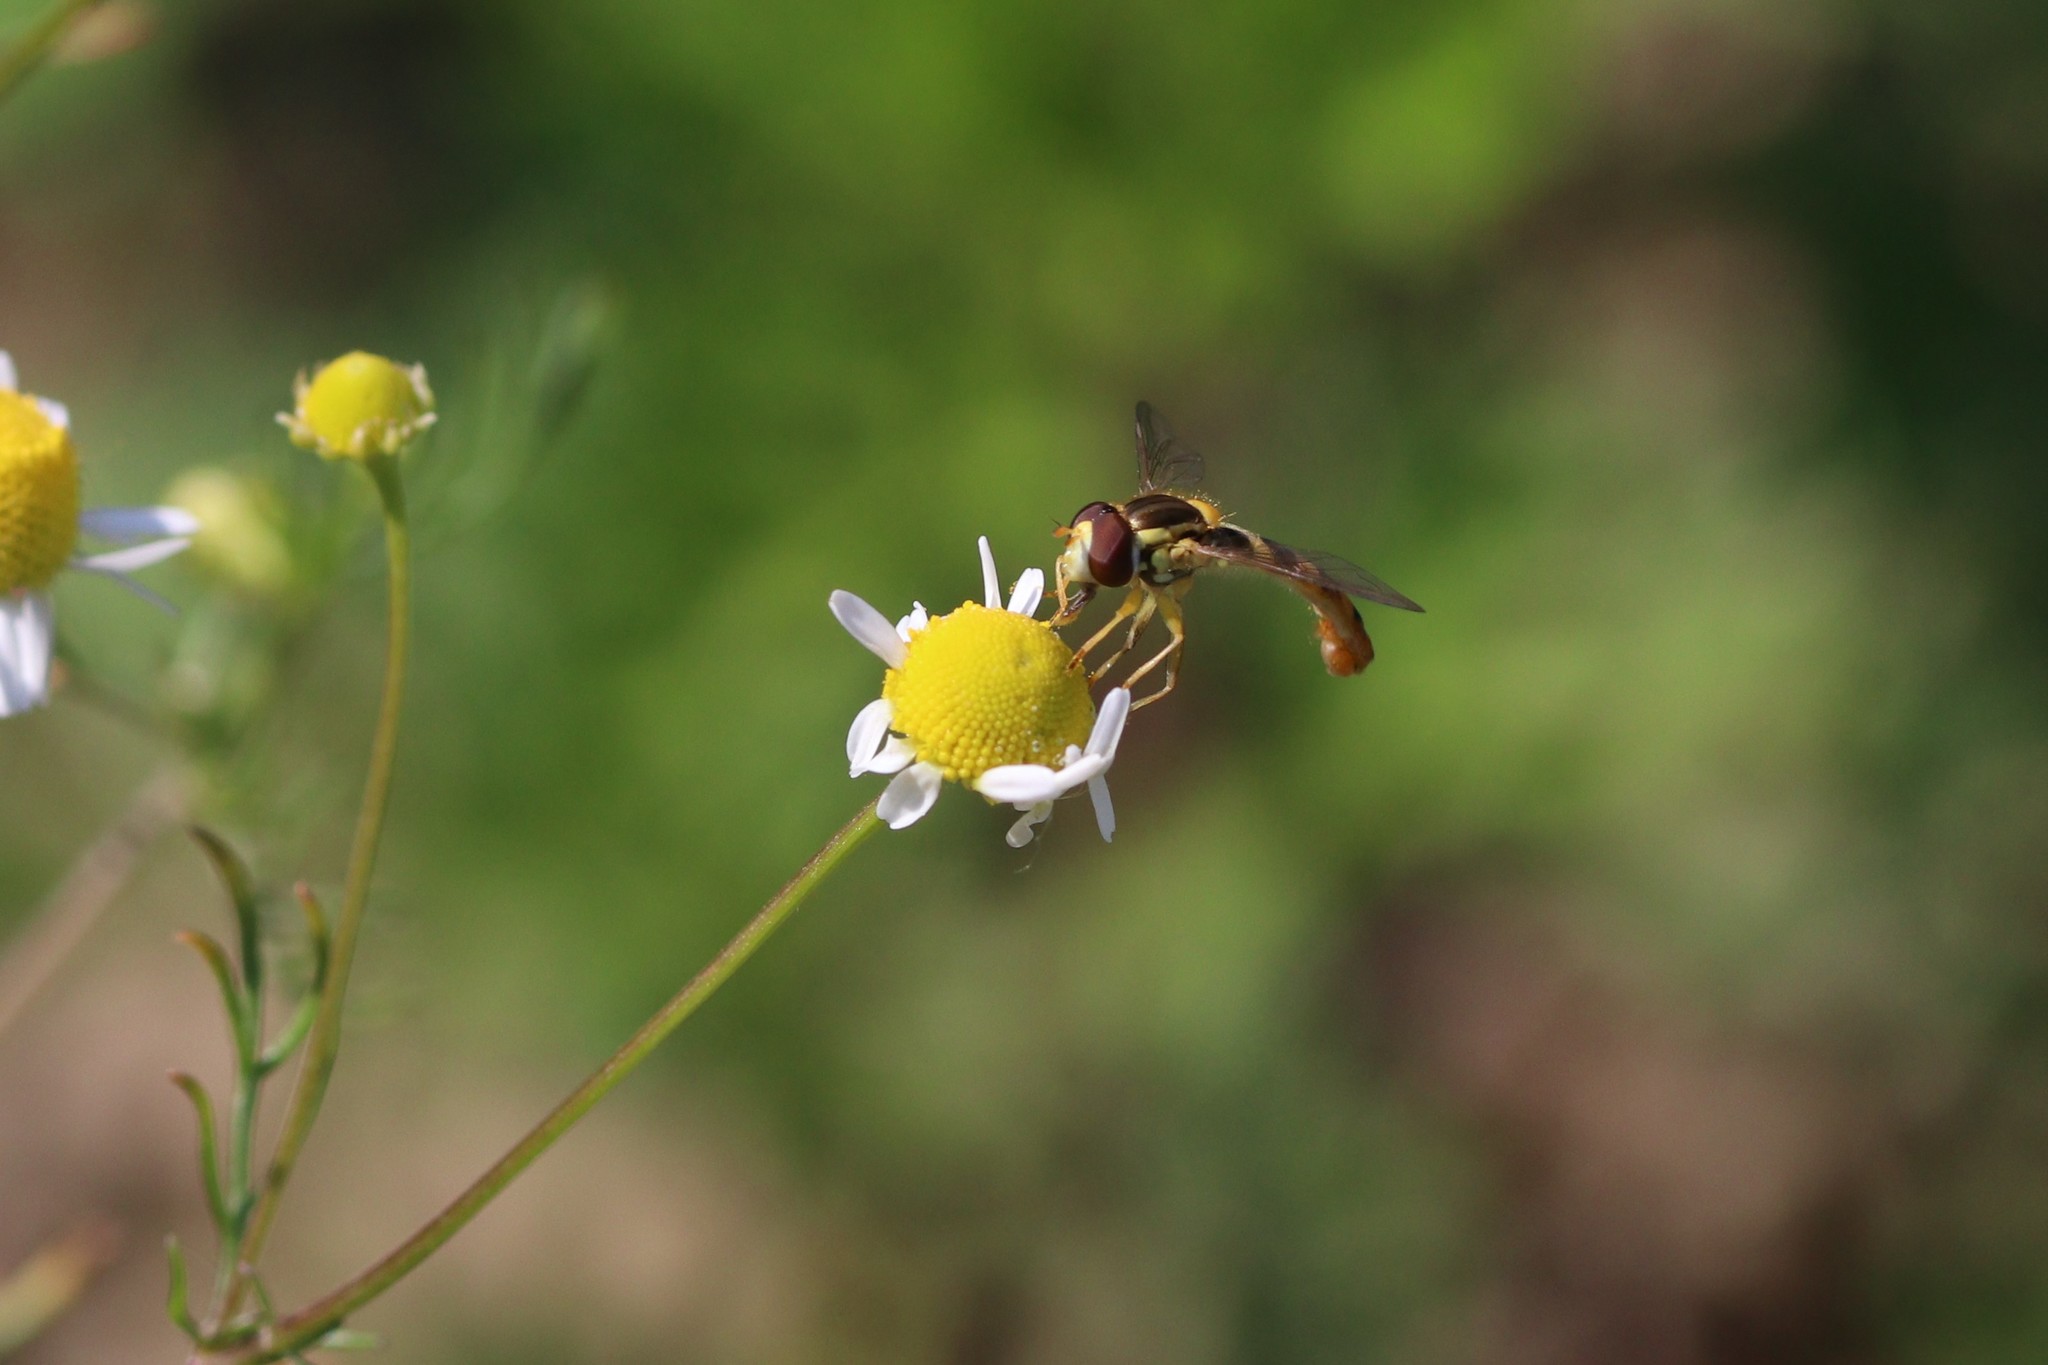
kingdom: Animalia
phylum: Arthropoda
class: Insecta
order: Diptera
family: Syrphidae
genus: Sphaerophoria
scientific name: Sphaerophoria scripta
